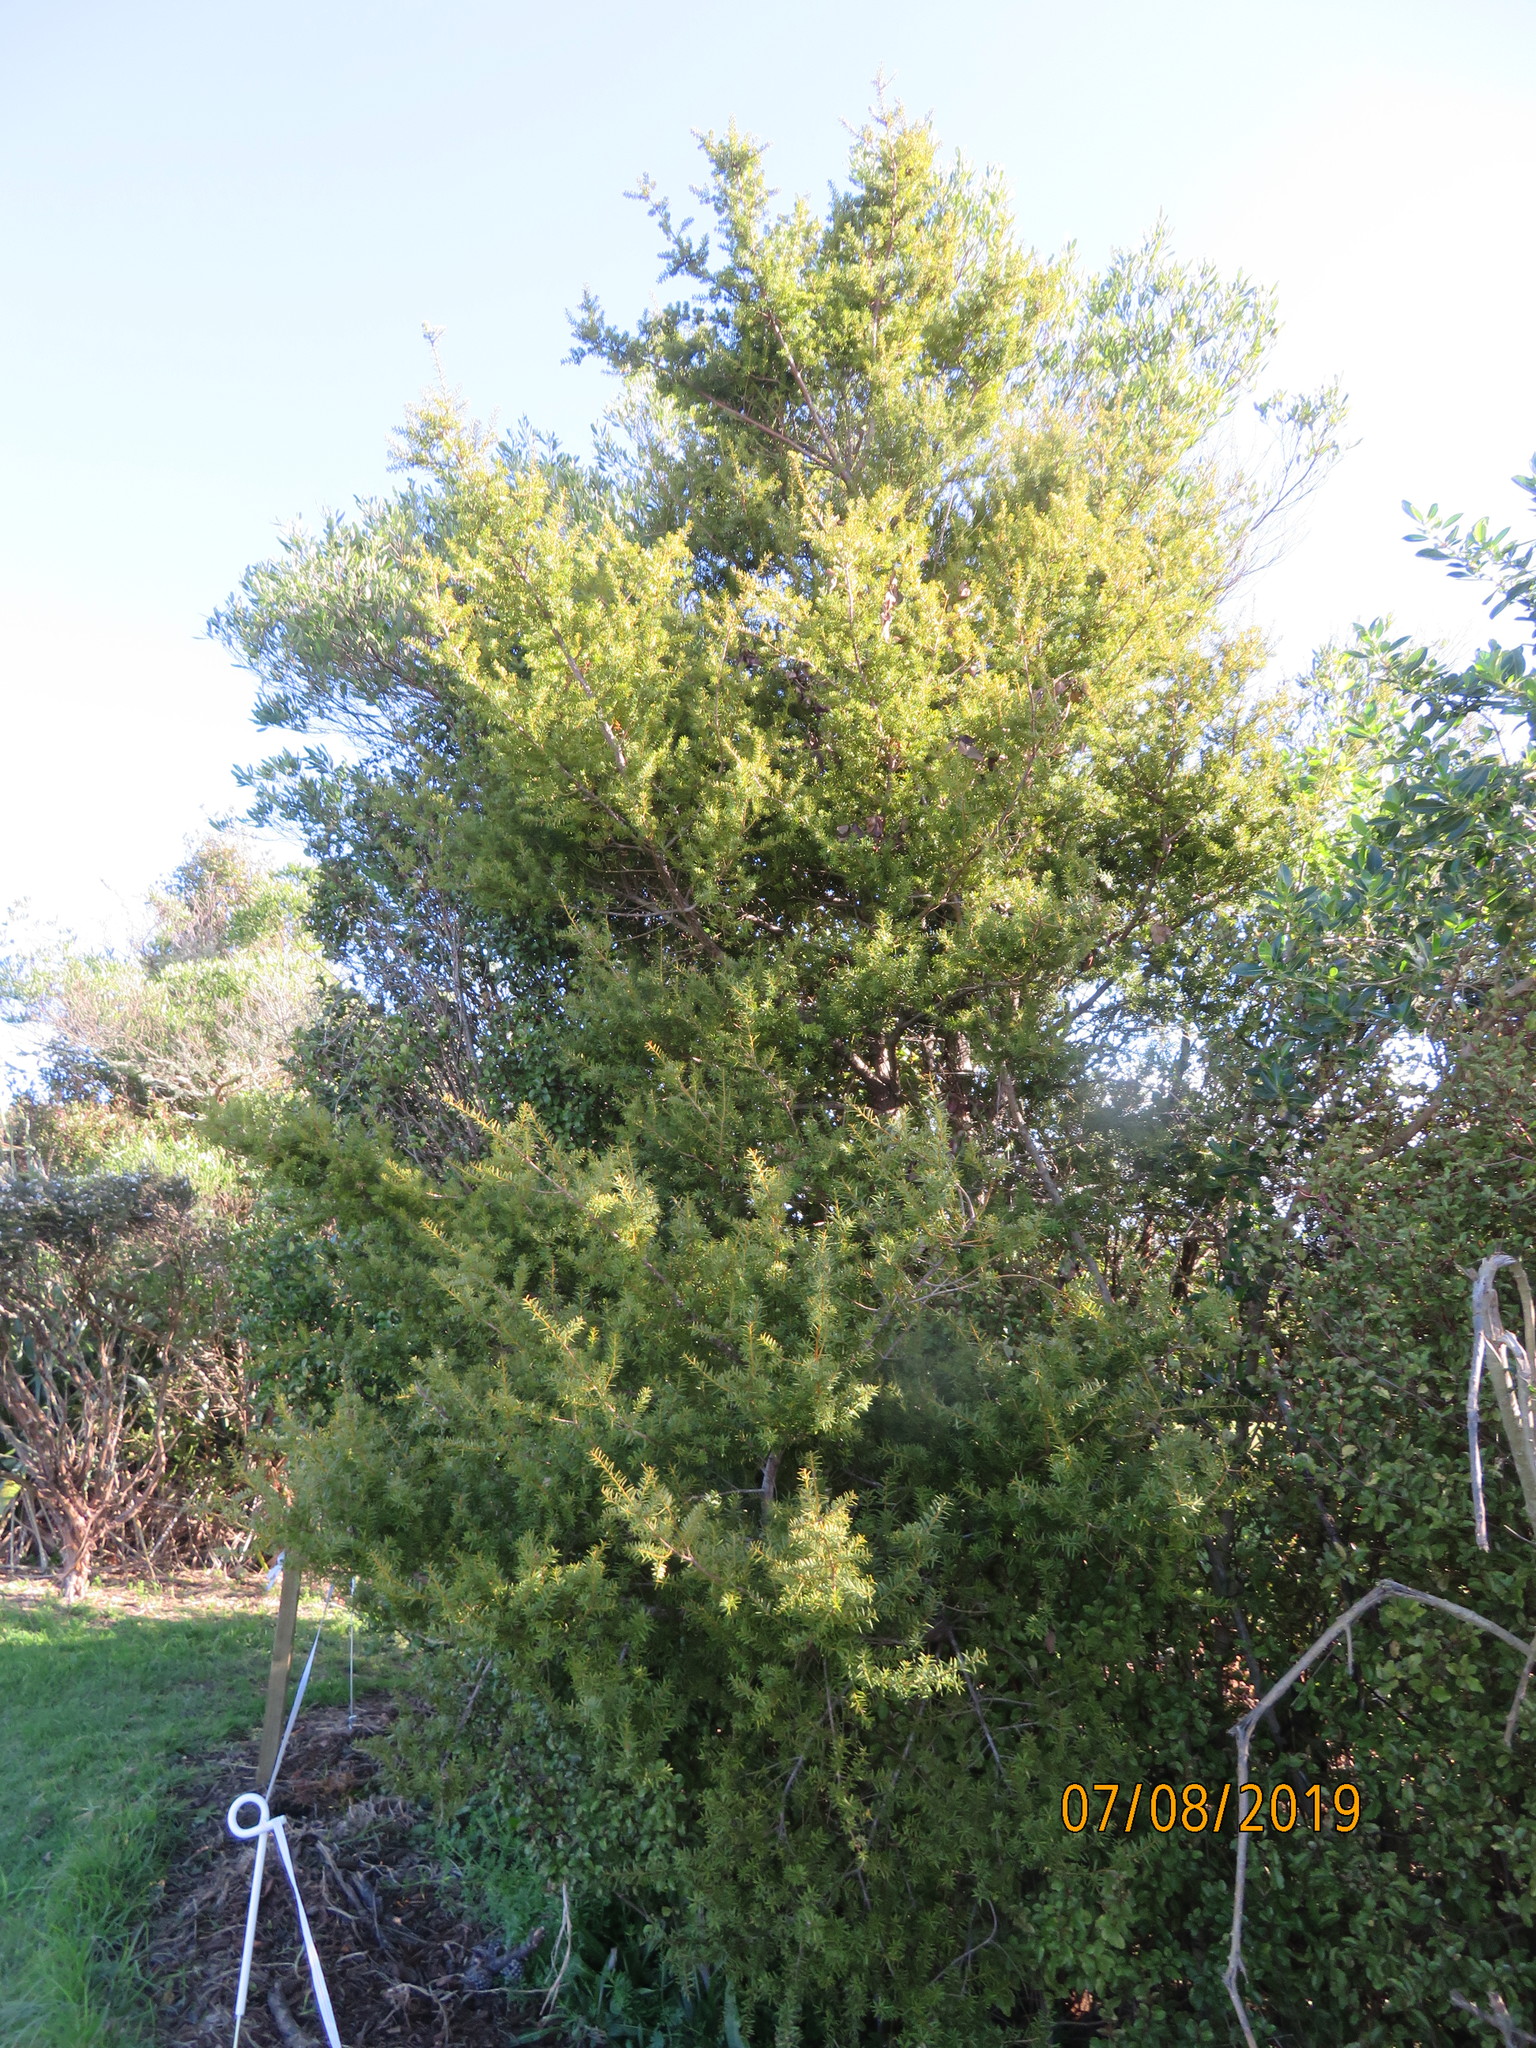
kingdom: Plantae
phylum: Tracheophyta
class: Pinopsida
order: Pinales
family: Podocarpaceae
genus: Podocarpus
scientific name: Podocarpus totara
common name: Totara
